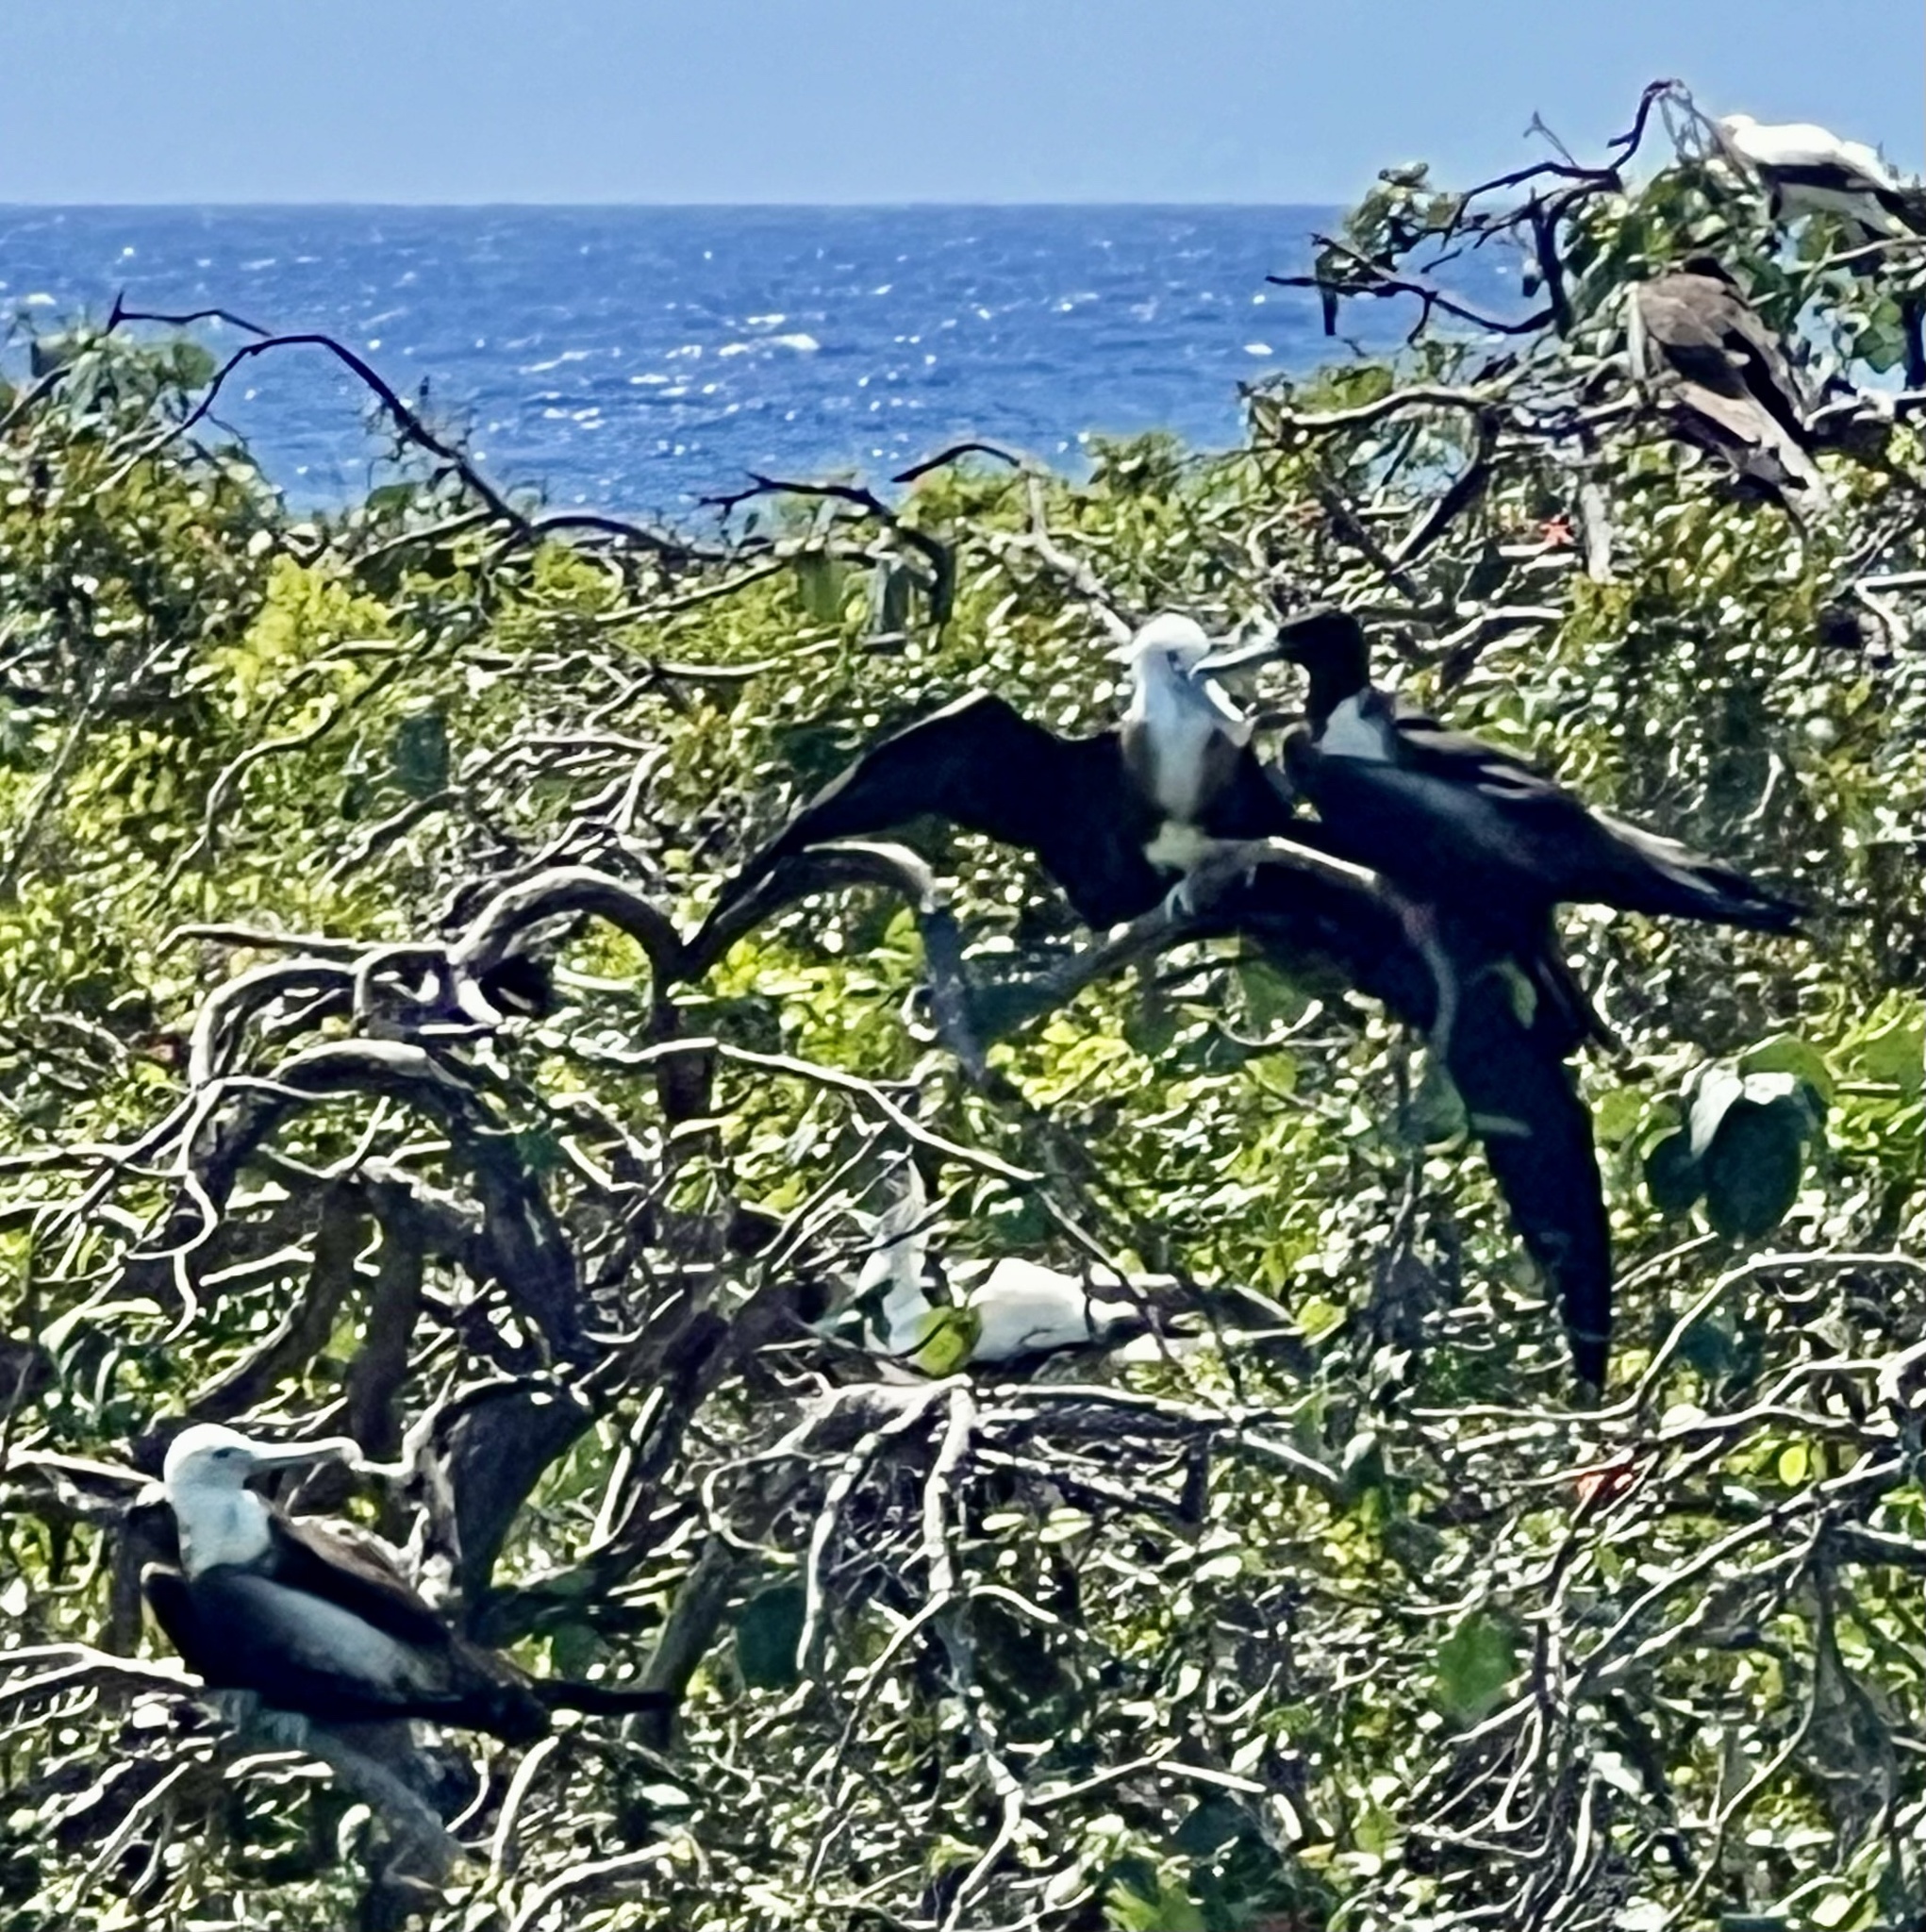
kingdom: Animalia
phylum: Chordata
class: Aves
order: Suliformes
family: Fregatidae
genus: Fregata
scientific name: Fregata magnificens
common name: Magnificent frigatebird
